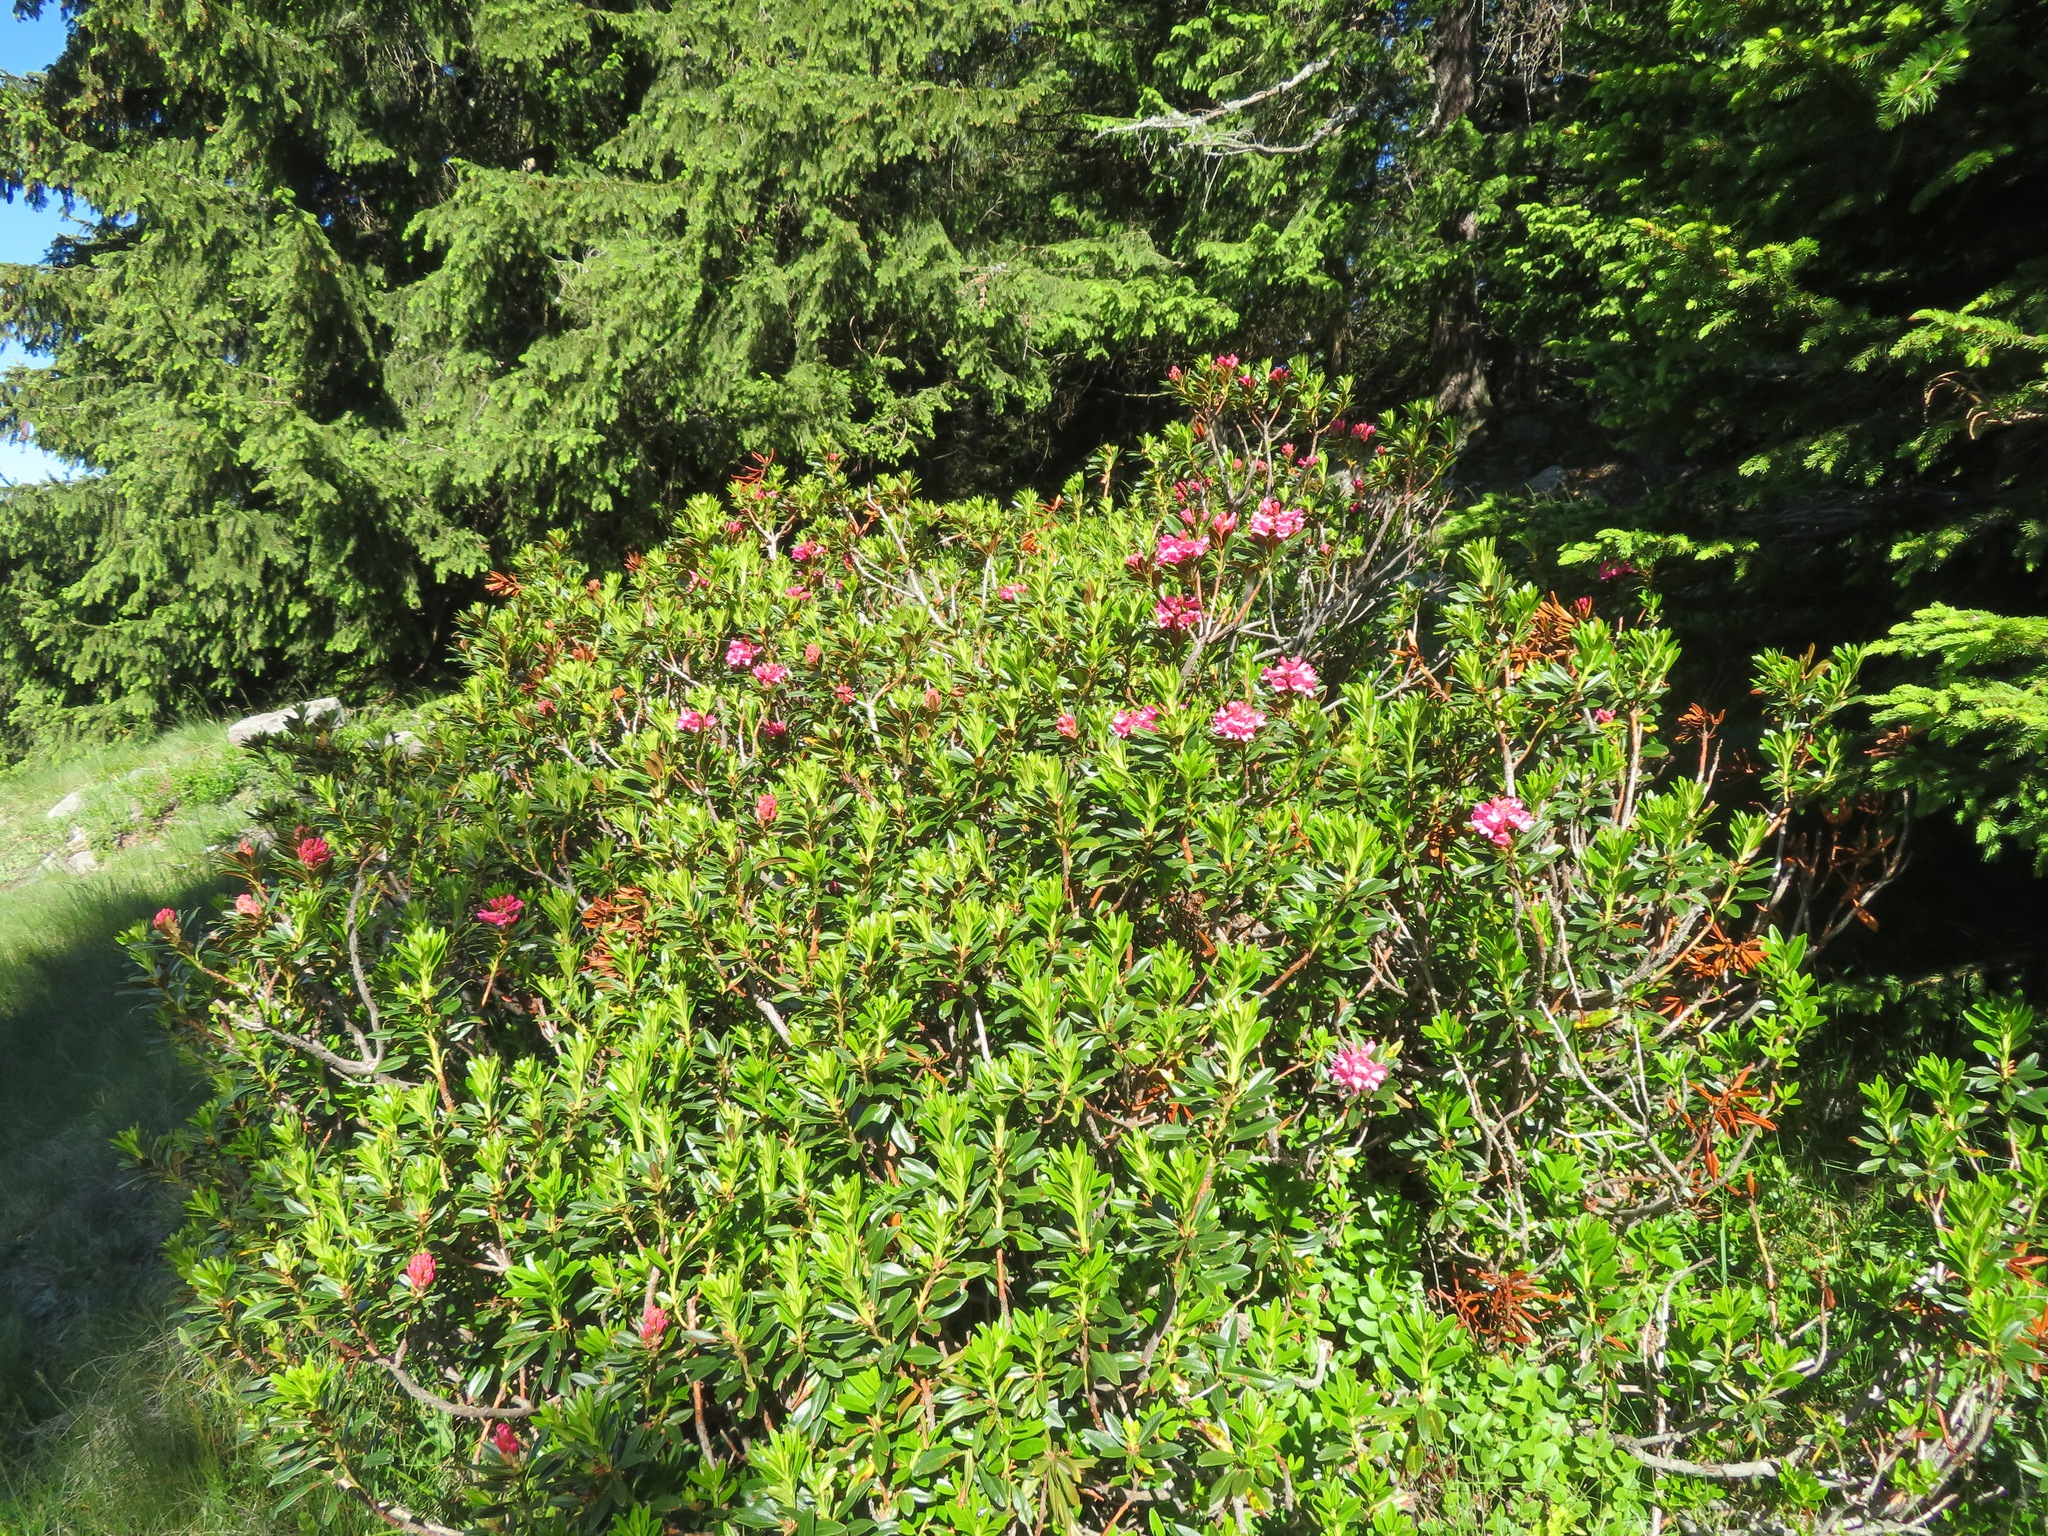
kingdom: Plantae
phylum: Tracheophyta
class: Magnoliopsida
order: Ericales
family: Ericaceae
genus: Rhododendron
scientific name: Rhododendron ferrugineum
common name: Alpenrose
